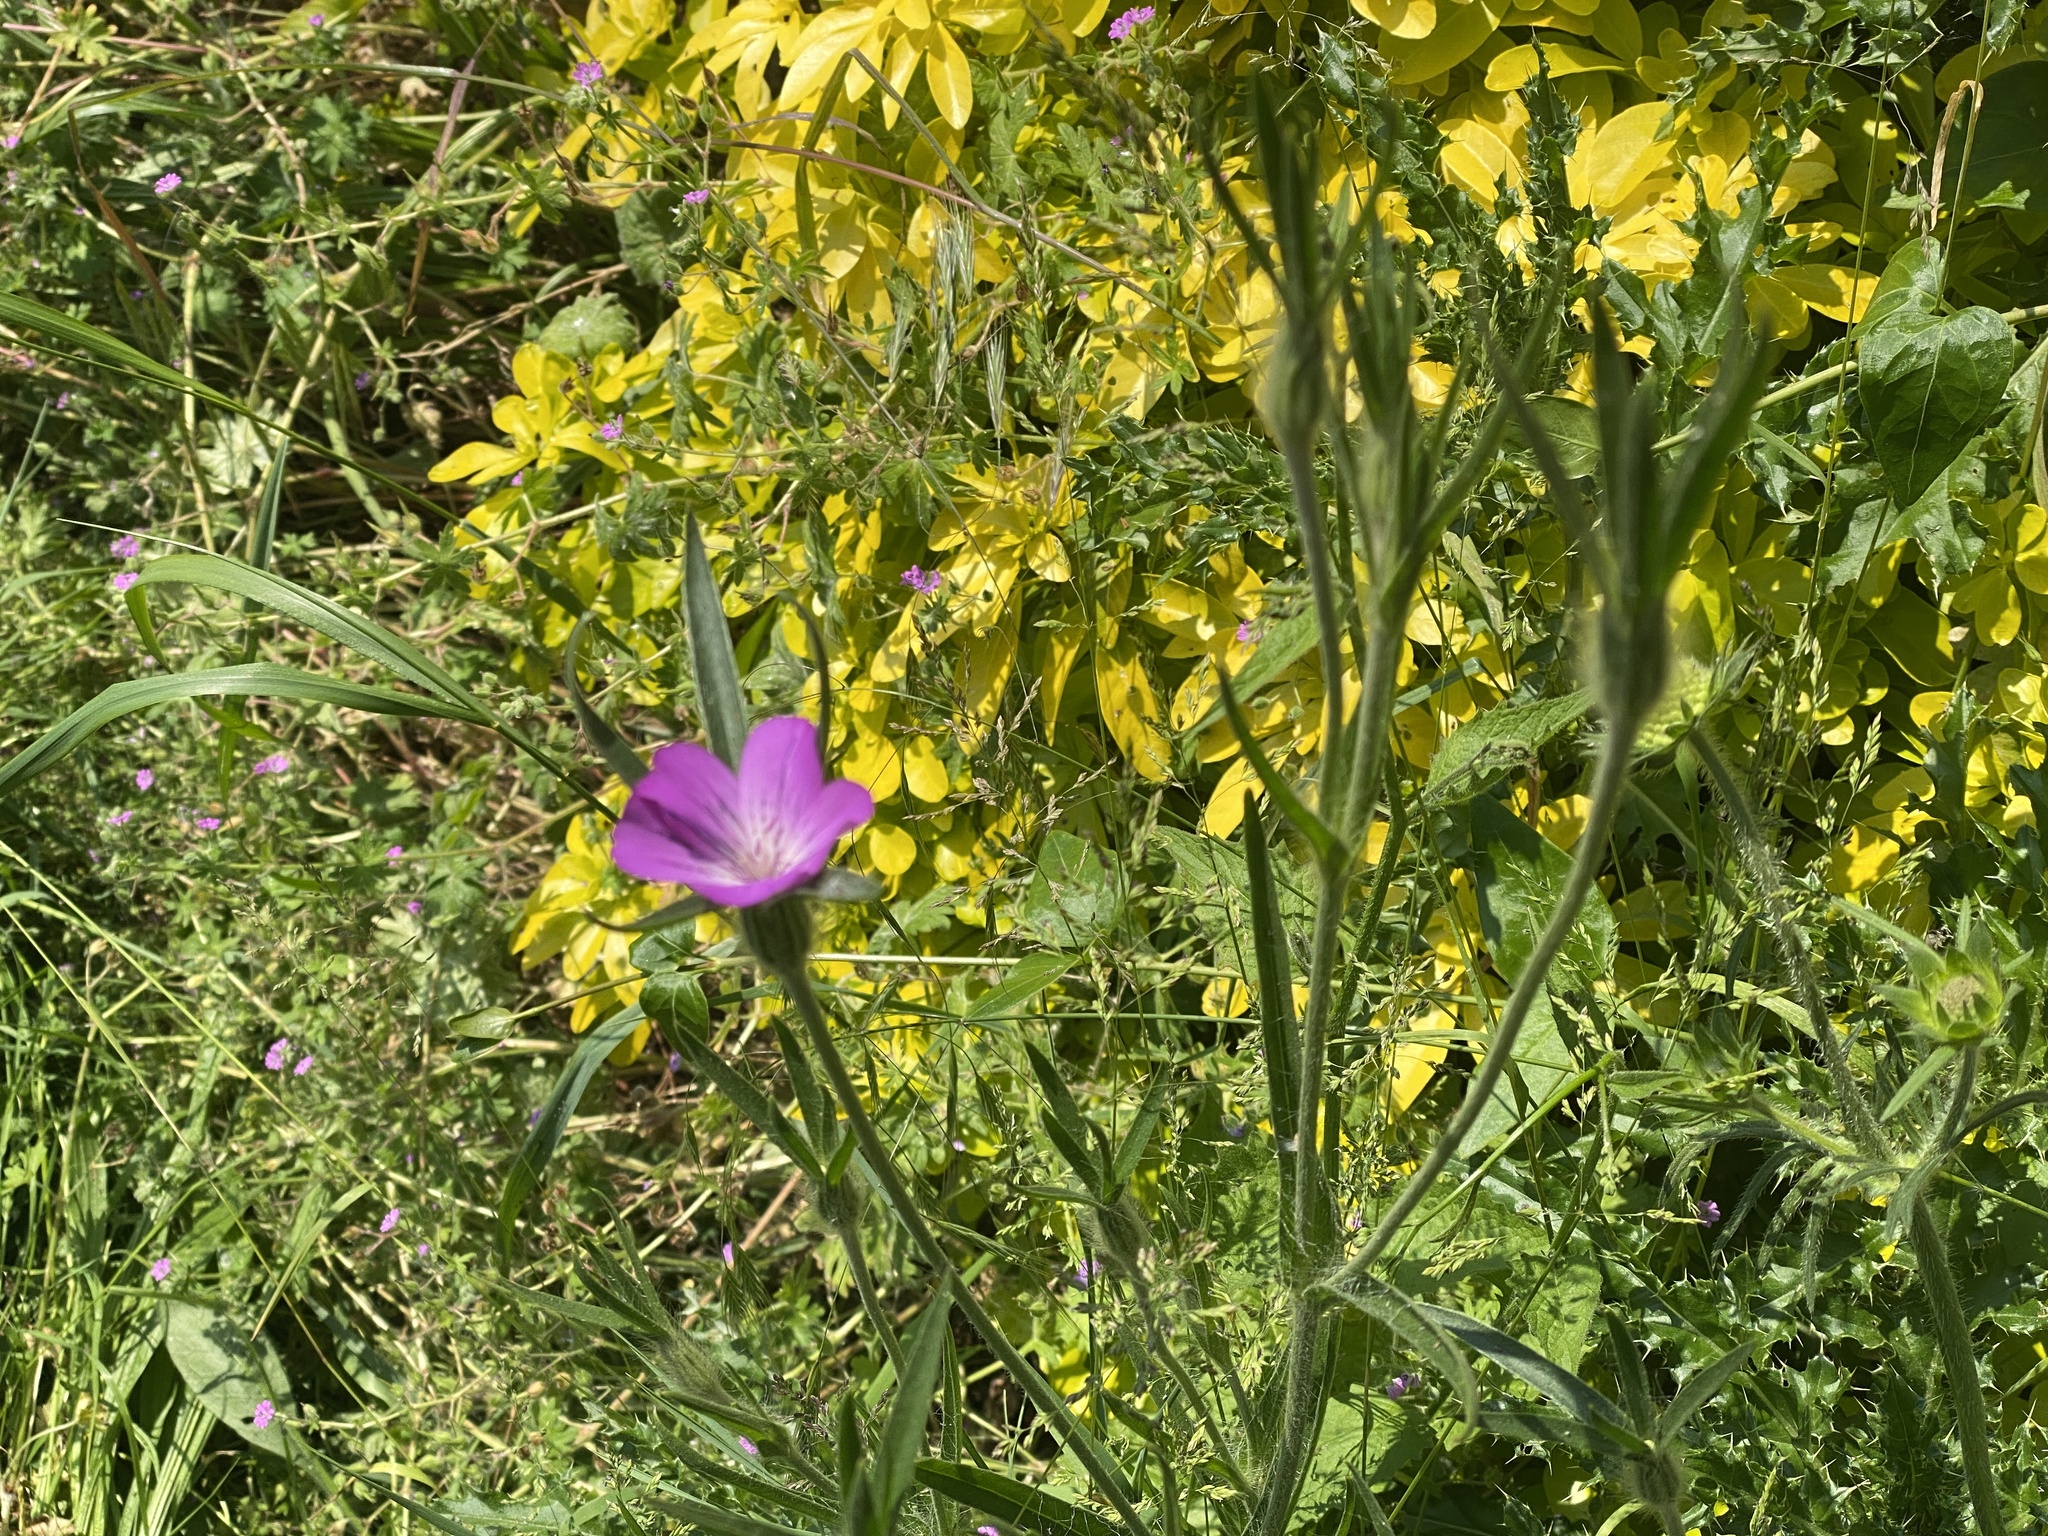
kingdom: Plantae
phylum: Tracheophyta
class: Magnoliopsida
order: Caryophyllales
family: Caryophyllaceae
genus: Agrostemma
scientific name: Agrostemma githago
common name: Common corncockle
